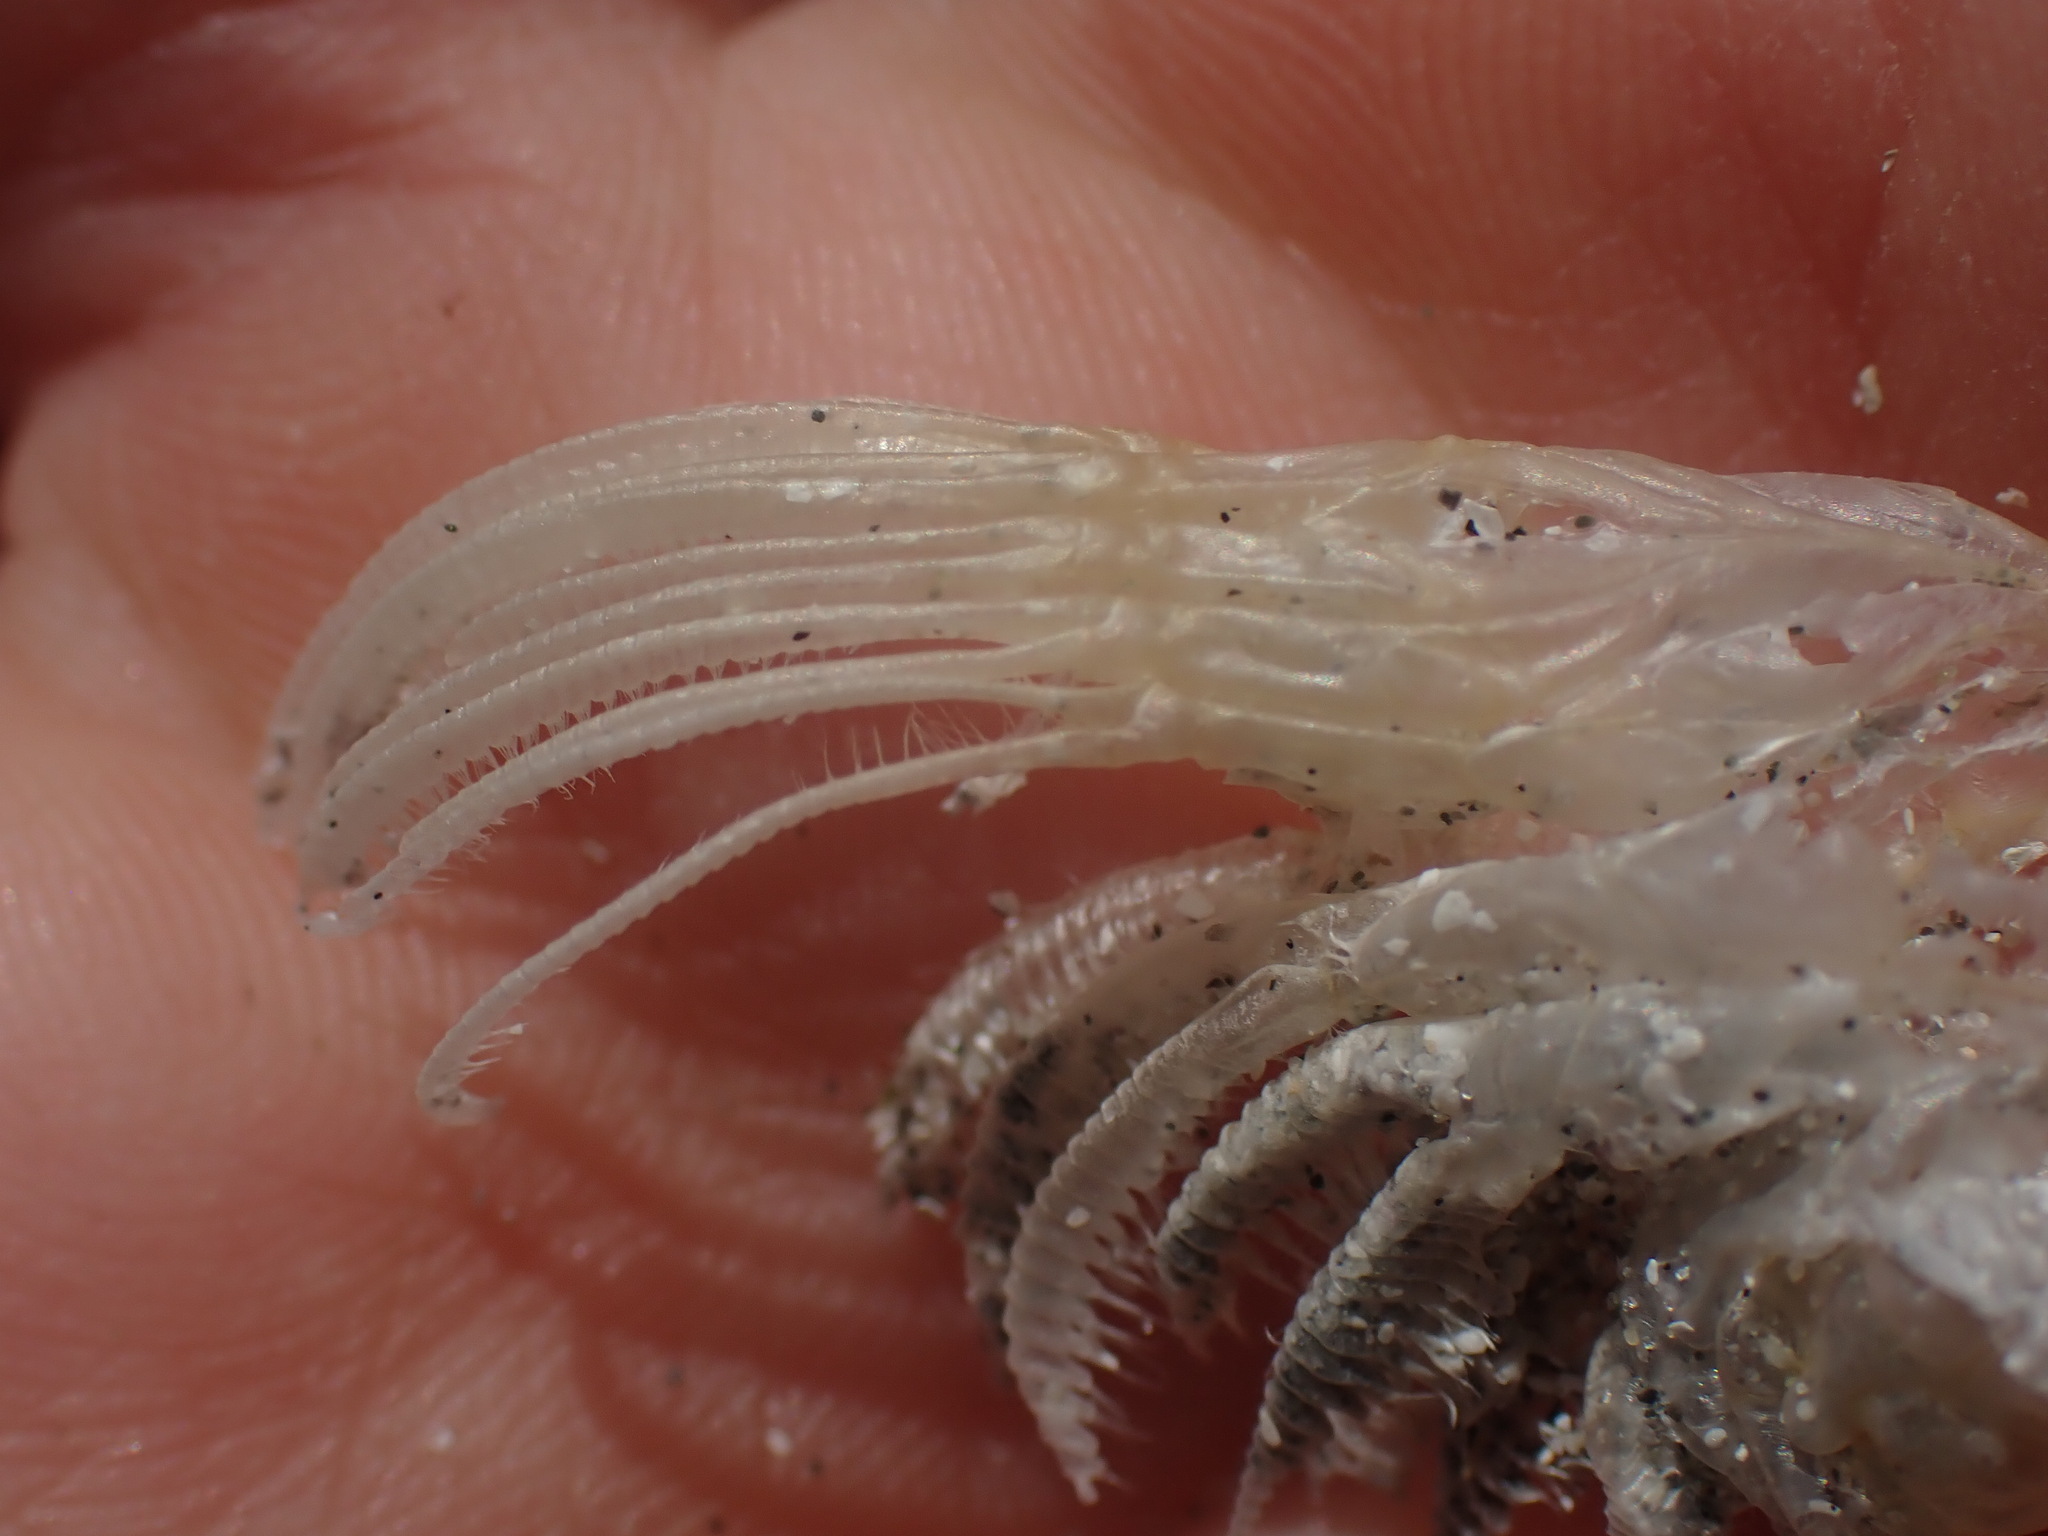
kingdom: Animalia
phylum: Arthropoda
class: Maxillopoda
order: Pedunculata
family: Pollicipedidae
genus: Pollicipes
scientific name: Pollicipes polymerus
